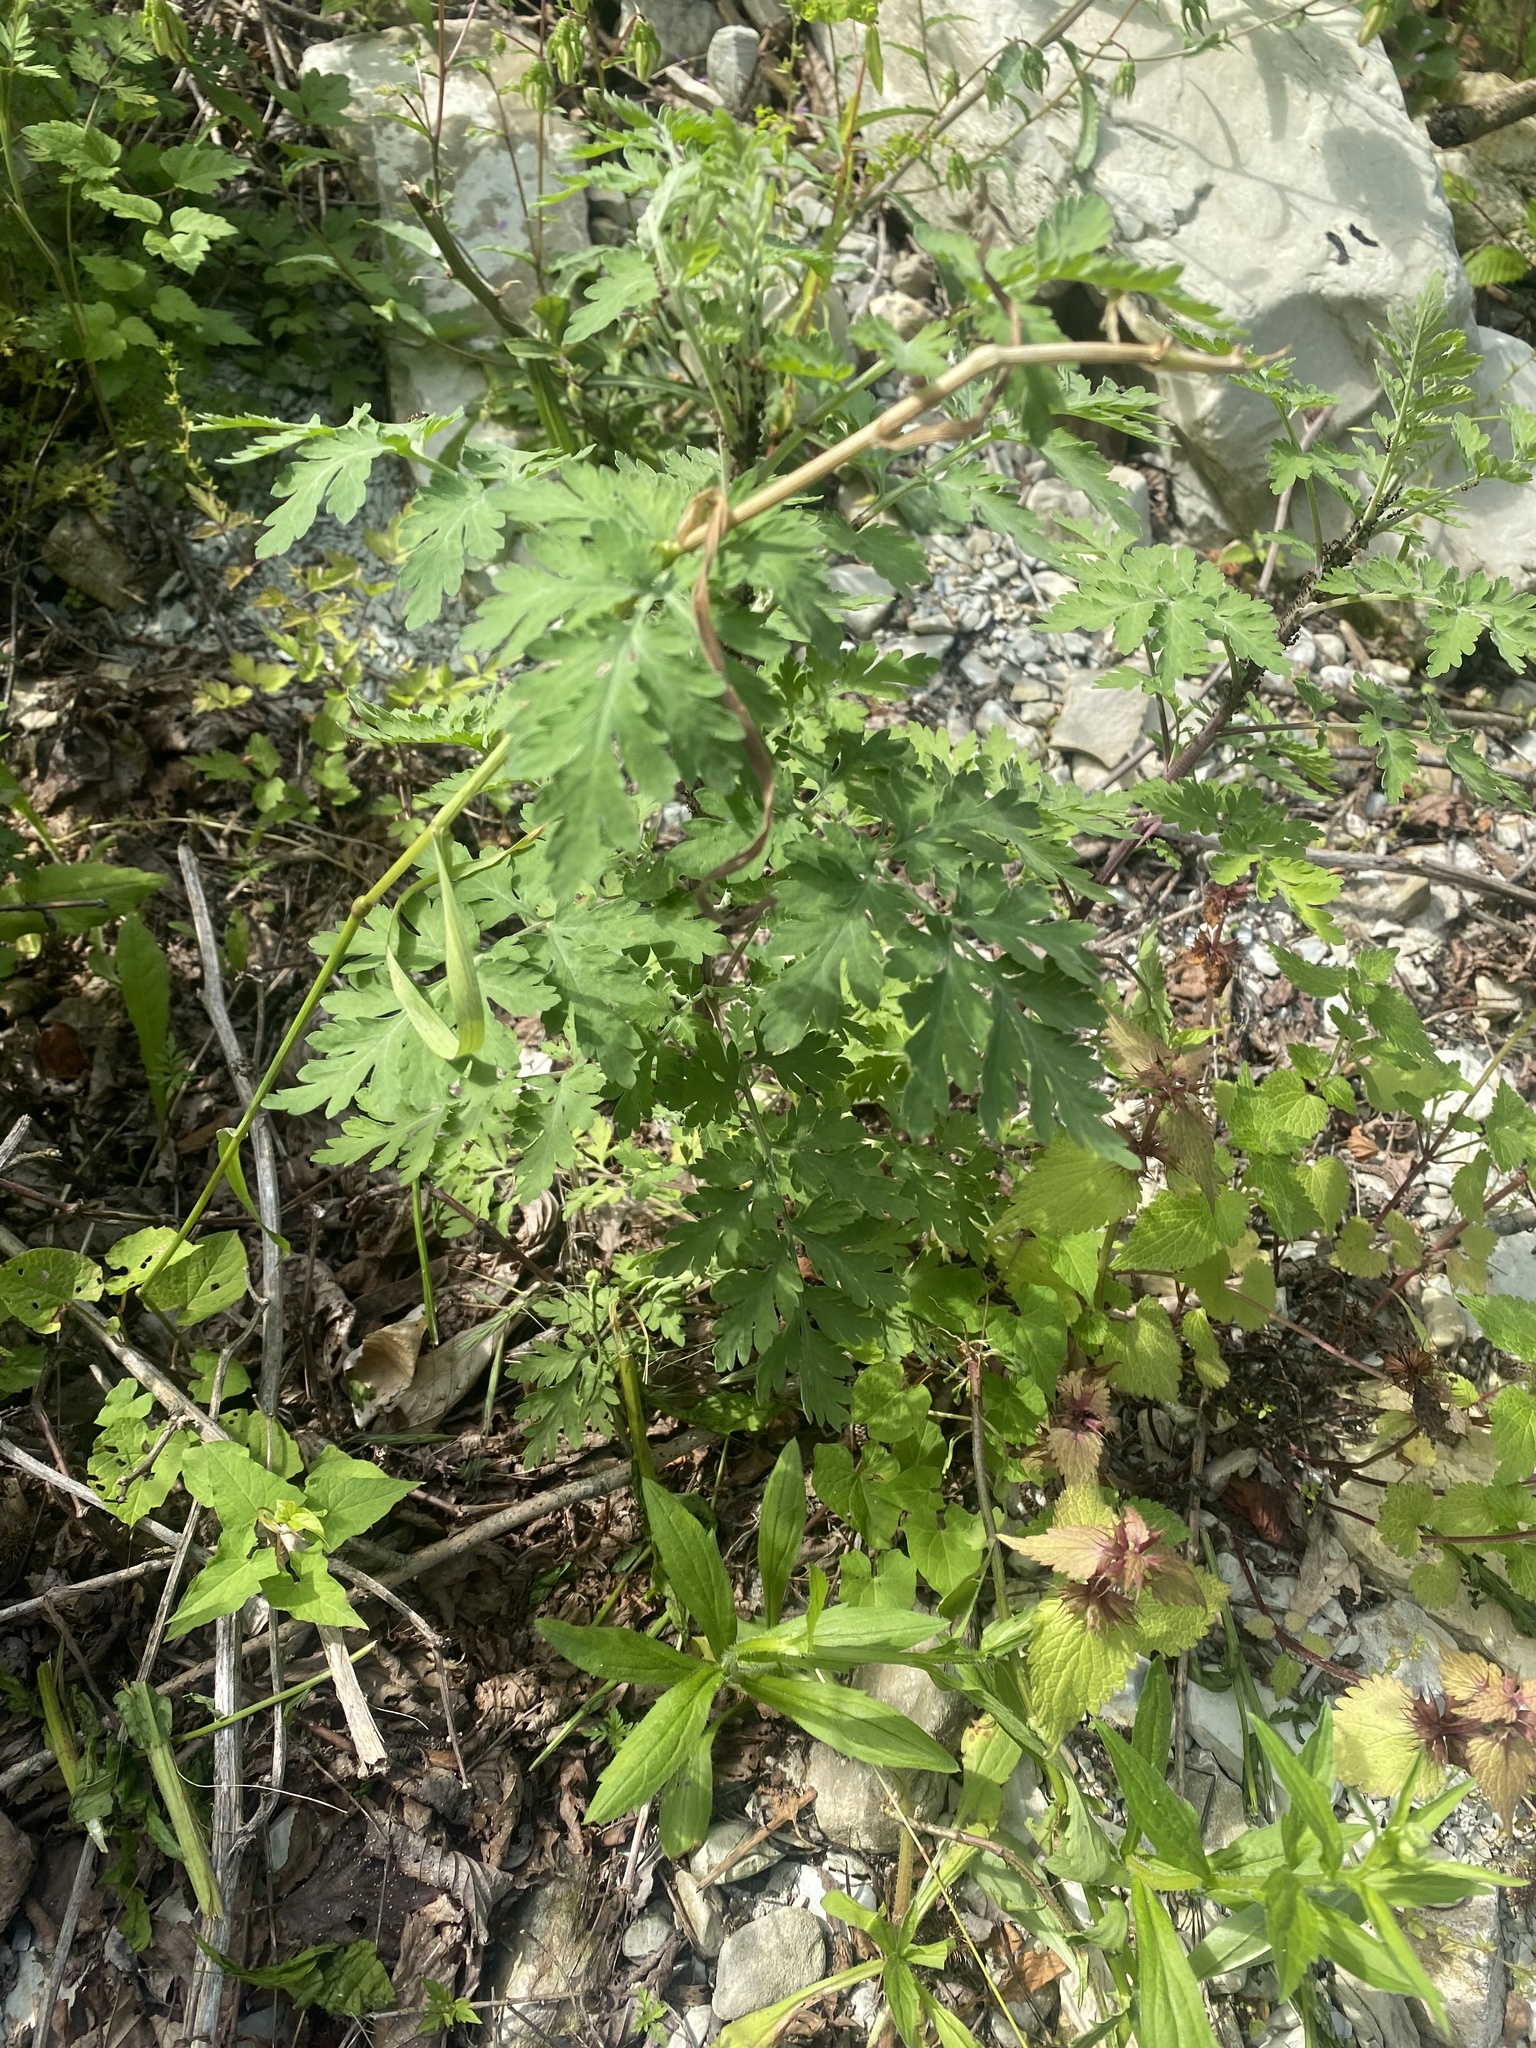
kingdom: Plantae
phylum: Tracheophyta
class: Magnoliopsida
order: Asterales
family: Asteraceae
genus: Tanacetum
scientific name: Tanacetum partheniifolium
